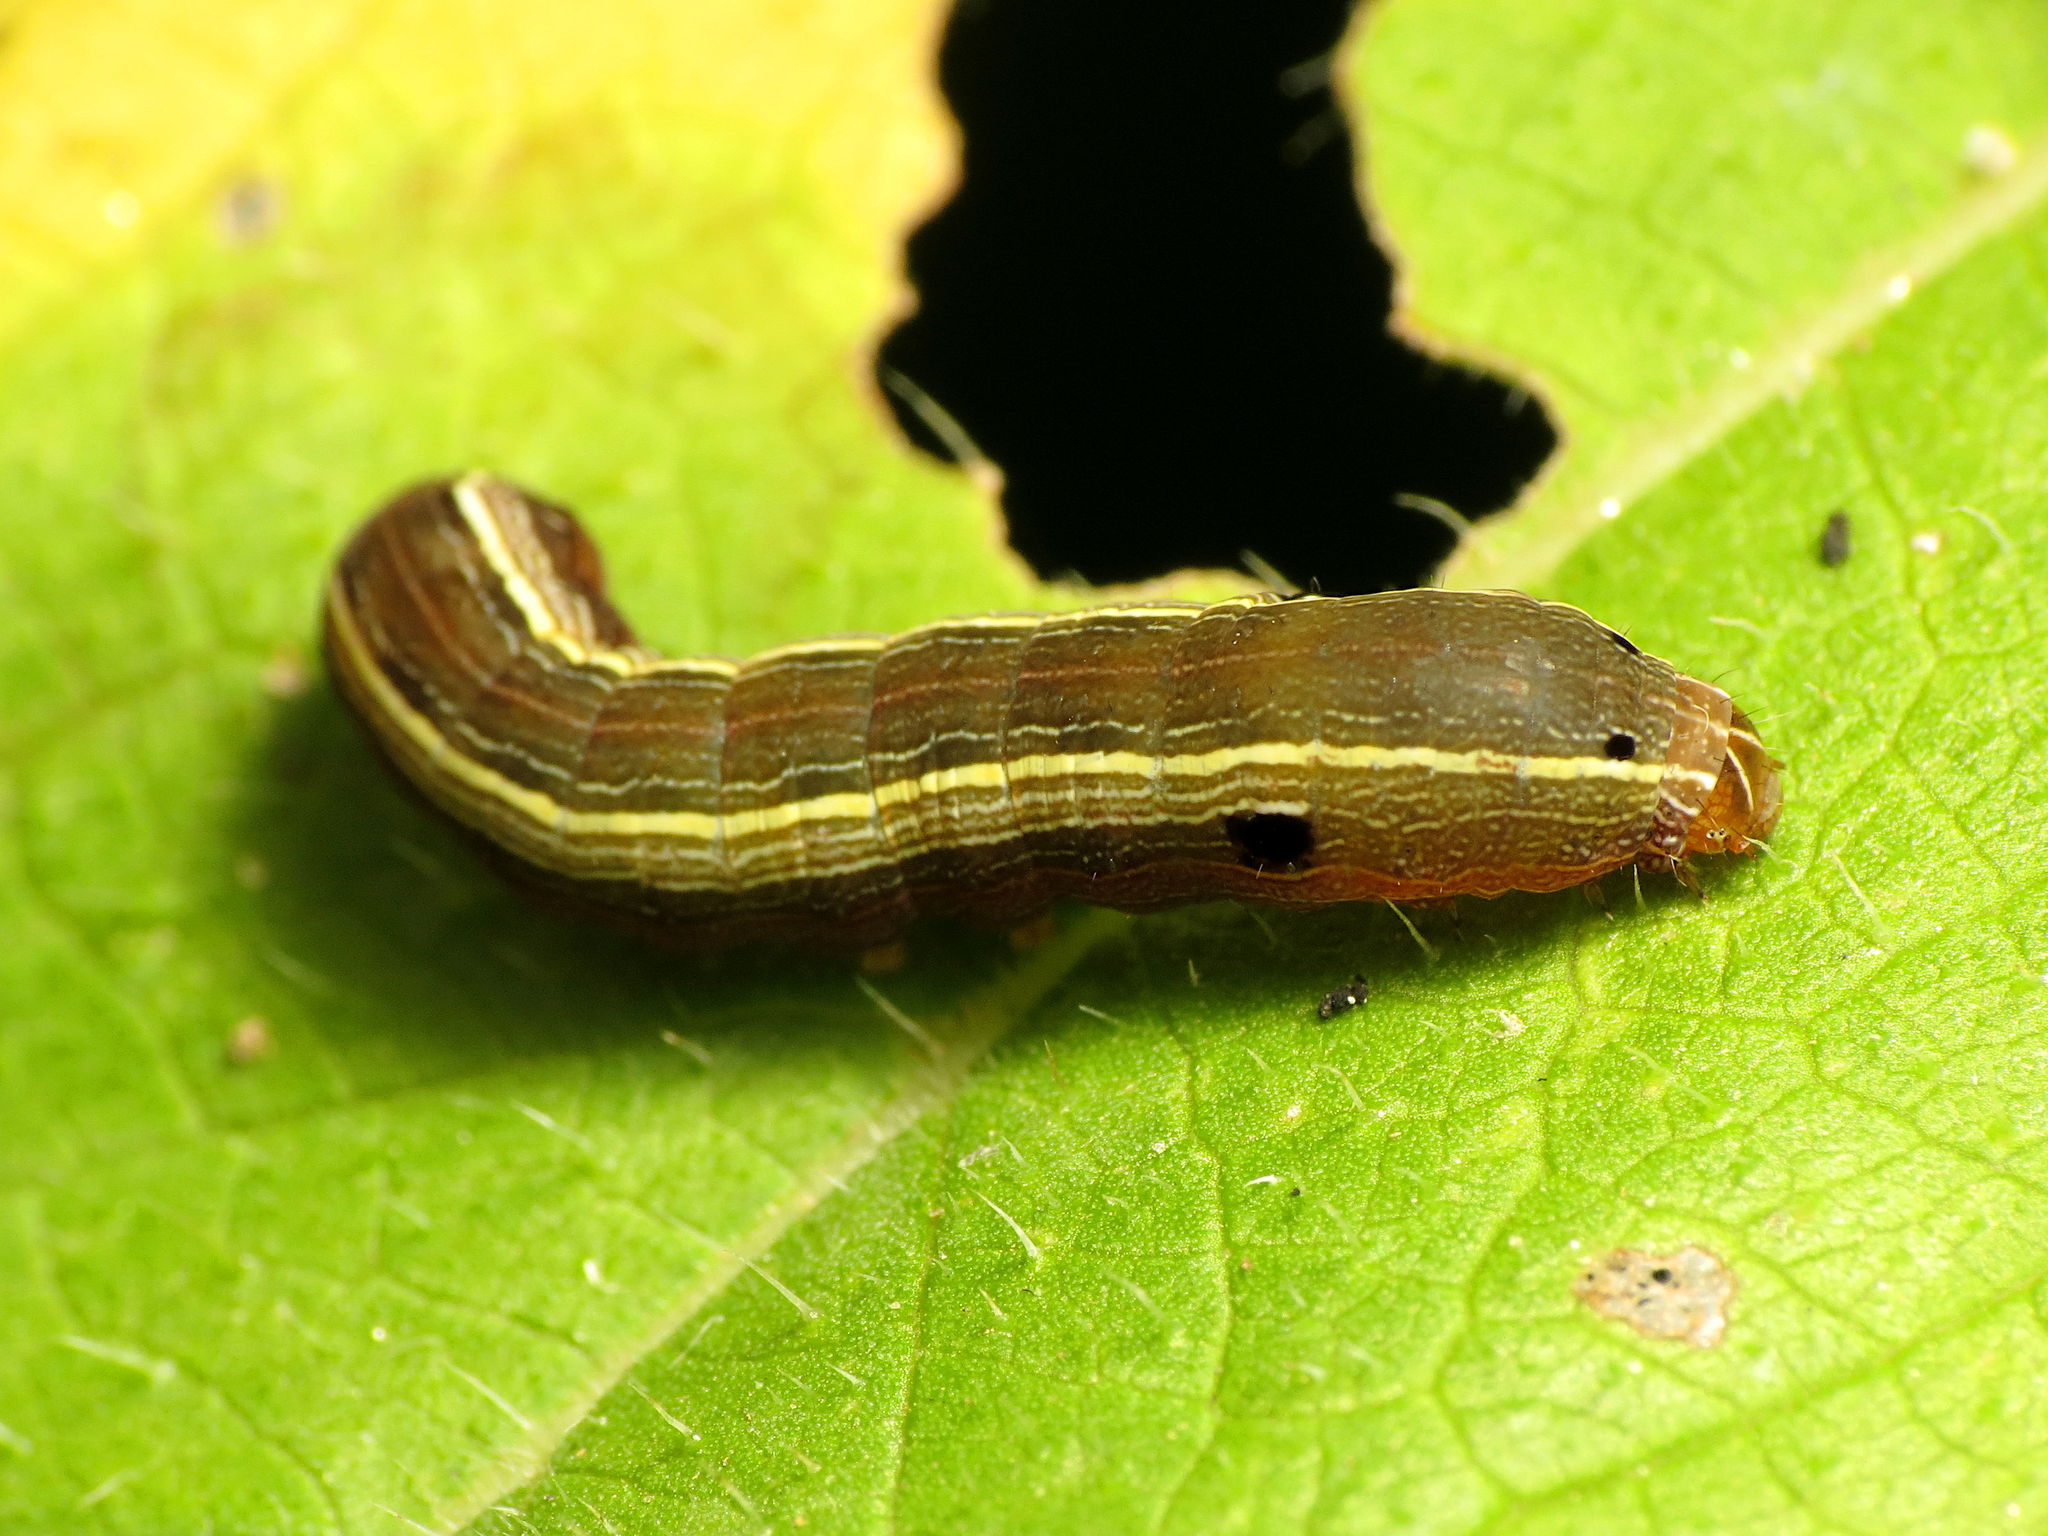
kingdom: Animalia
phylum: Arthropoda
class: Insecta
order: Lepidoptera
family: Noctuidae
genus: Spodoptera
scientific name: Spodoptera ornithogalli
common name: Yellow-striped armyworm
